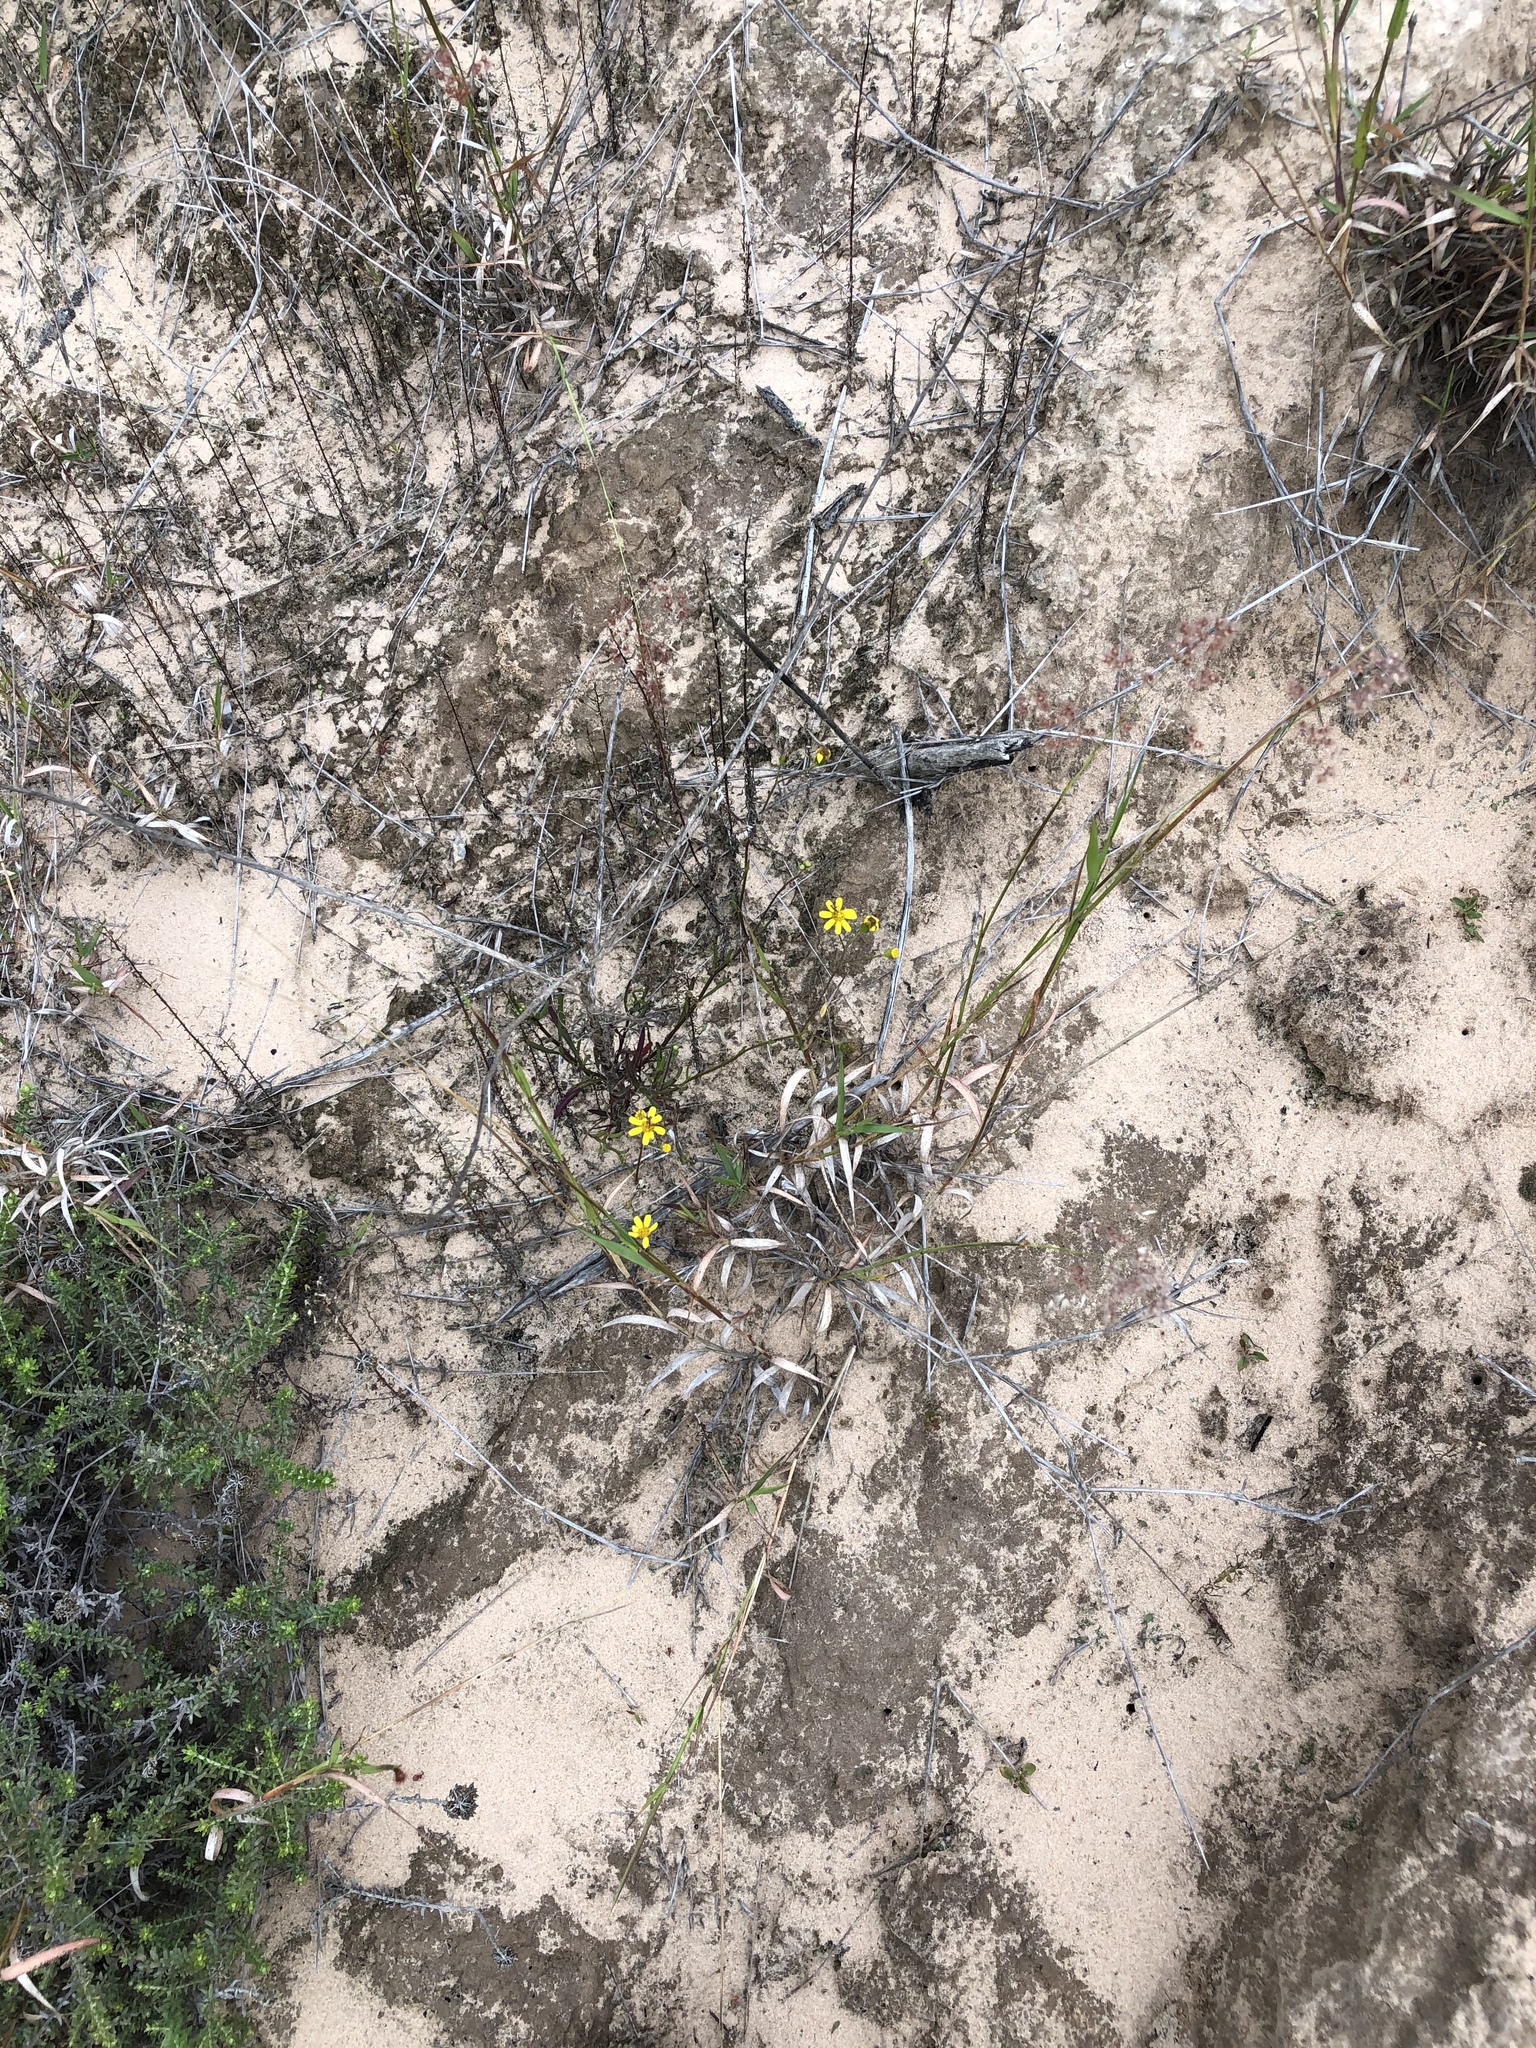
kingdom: Plantae
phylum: Tracheophyta
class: Magnoliopsida
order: Asterales
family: Asteraceae
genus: Senecio
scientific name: Senecio burchellii
